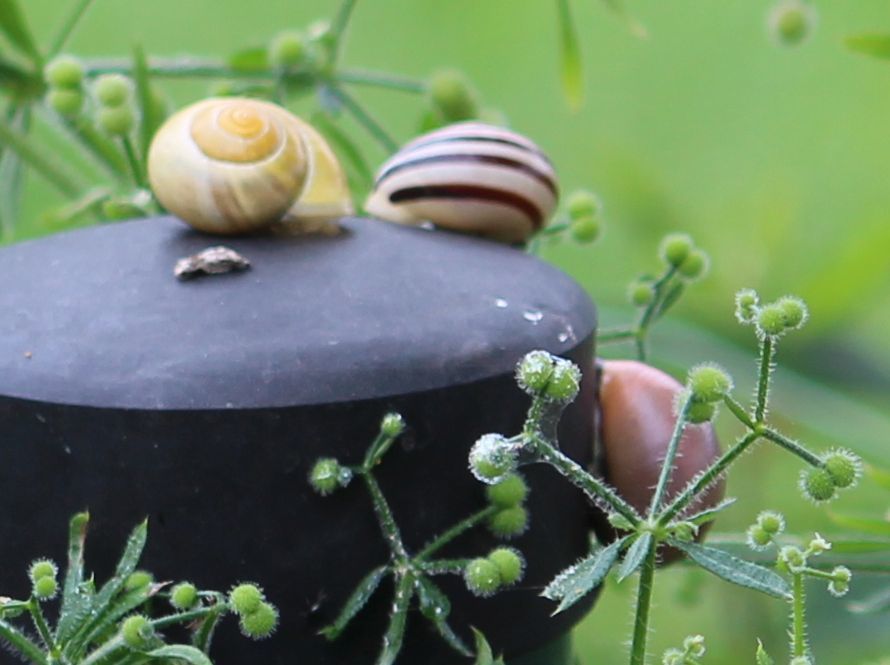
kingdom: Animalia
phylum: Mollusca
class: Gastropoda
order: Stylommatophora
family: Helicidae
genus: Cepaea
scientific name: Cepaea hortensis
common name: White-lip gardensnail
